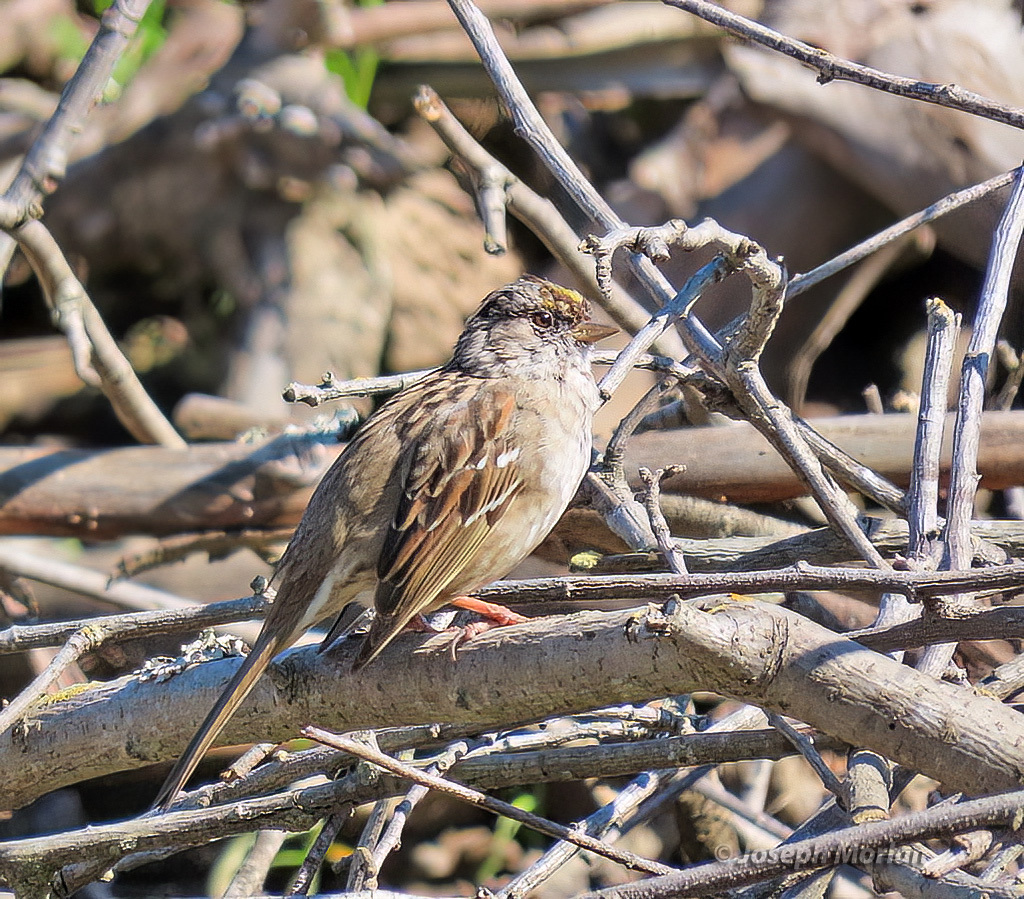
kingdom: Animalia
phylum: Chordata
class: Aves
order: Passeriformes
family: Passerellidae
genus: Zonotrichia
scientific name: Zonotrichia atricapilla
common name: Golden-crowned sparrow
